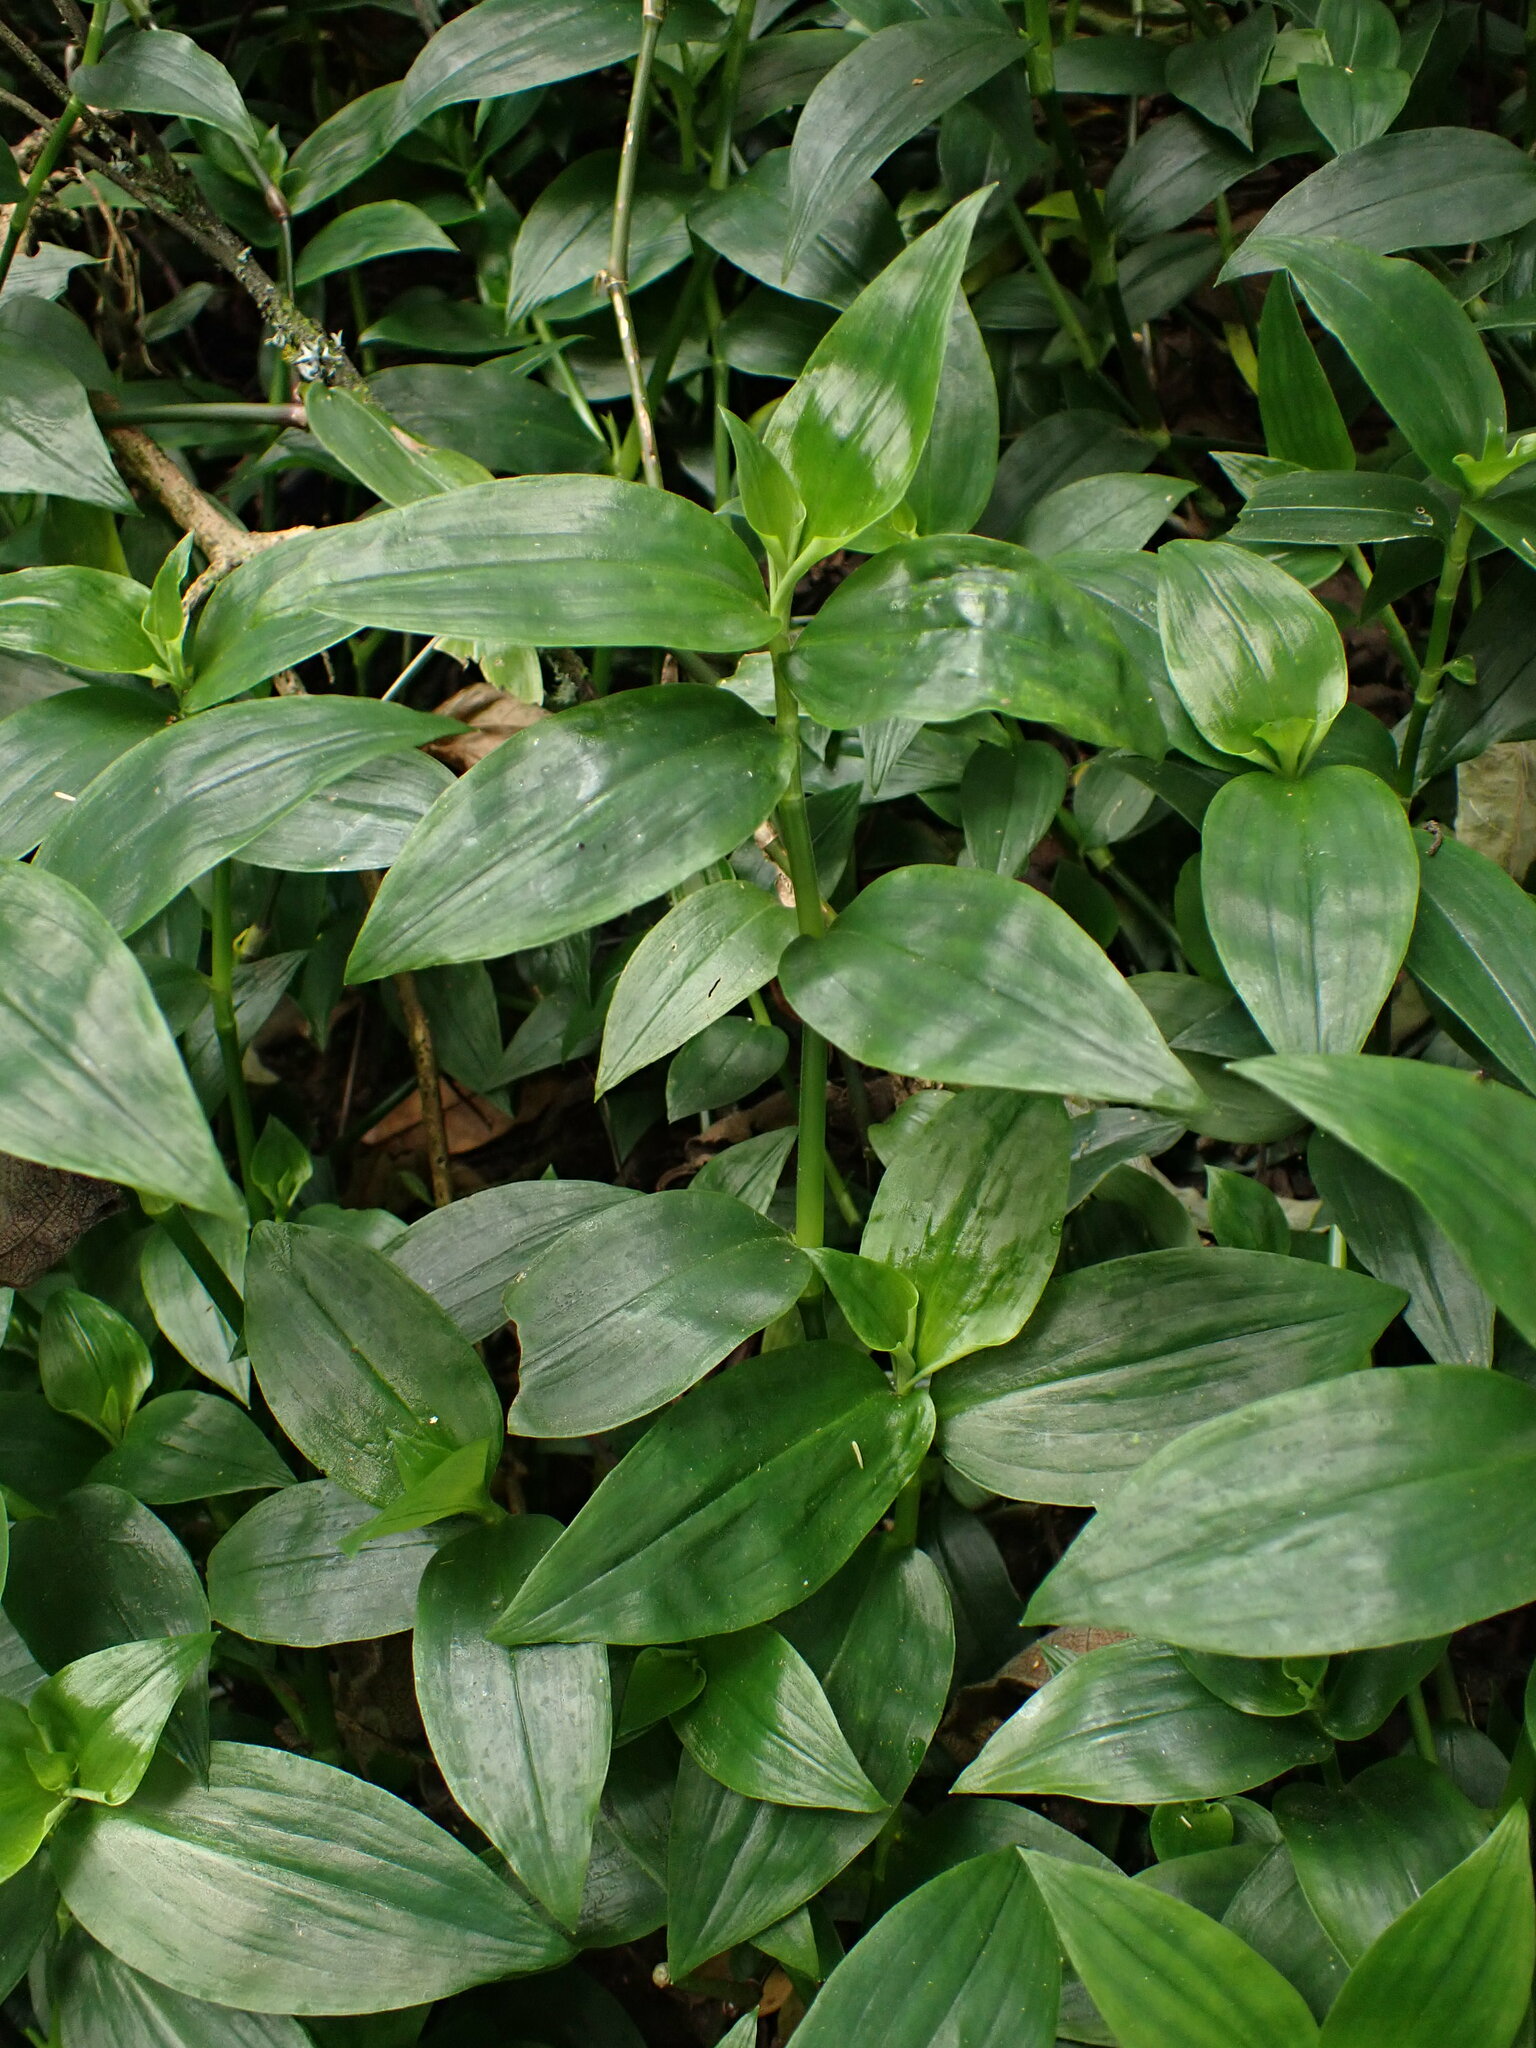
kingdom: Plantae
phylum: Tracheophyta
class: Liliopsida
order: Commelinales
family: Commelinaceae
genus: Tradescantia
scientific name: Tradescantia fluminensis
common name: Wandering-jew
